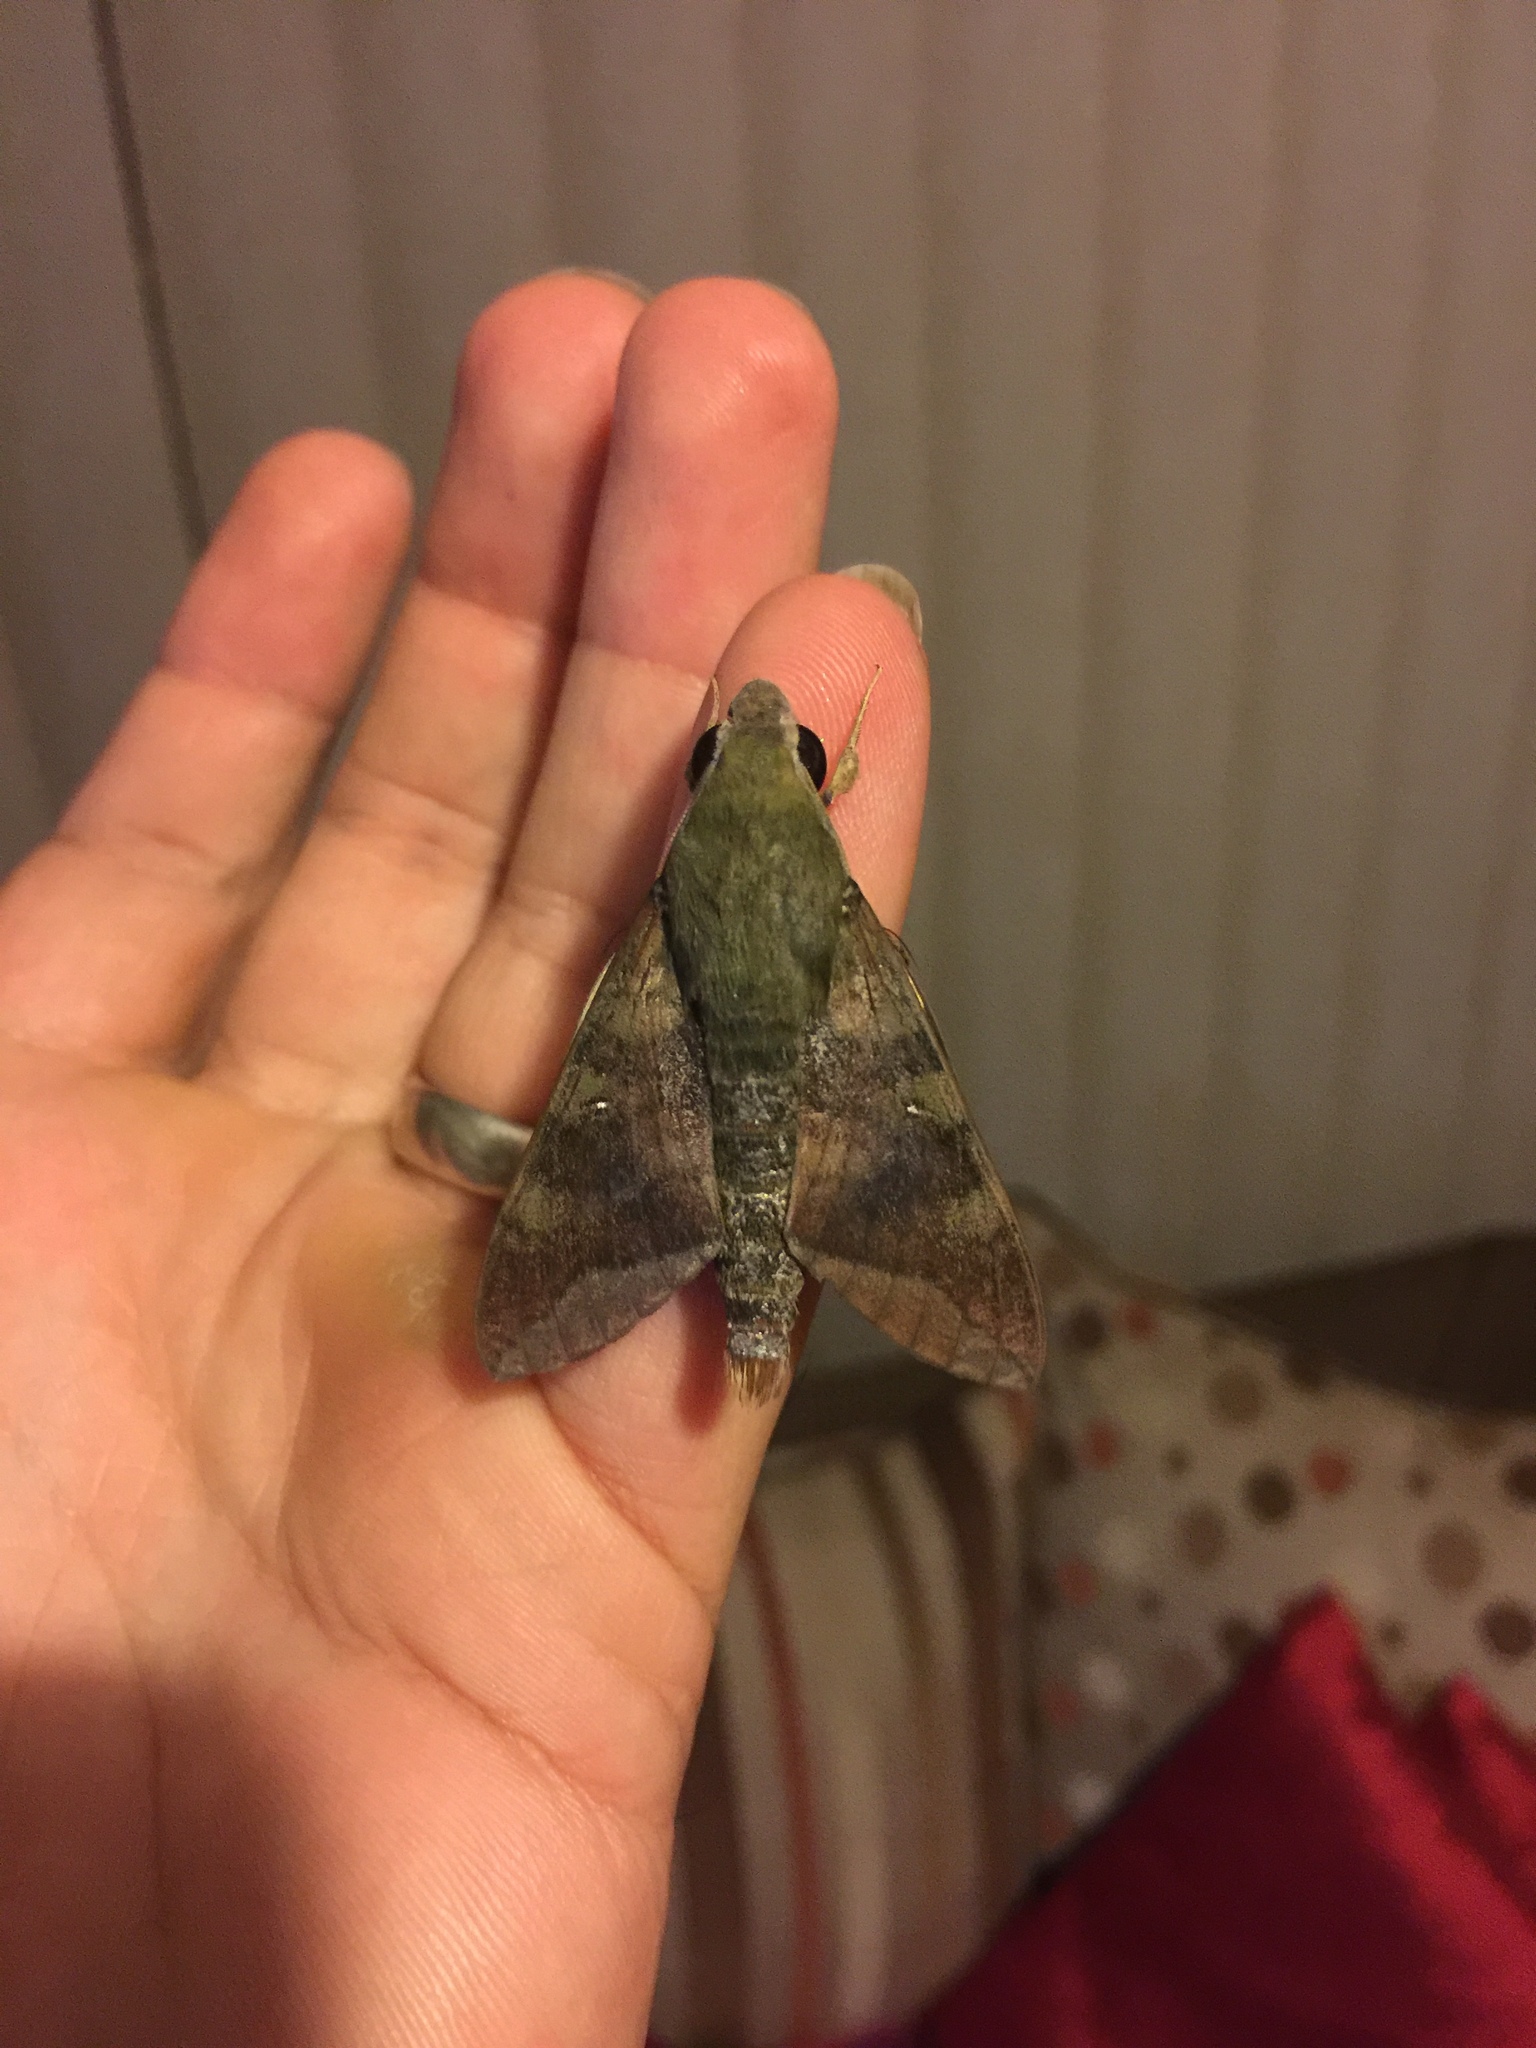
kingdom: Animalia
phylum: Arthropoda
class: Insecta
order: Lepidoptera
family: Sphingidae
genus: Nephele
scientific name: Nephele comma
